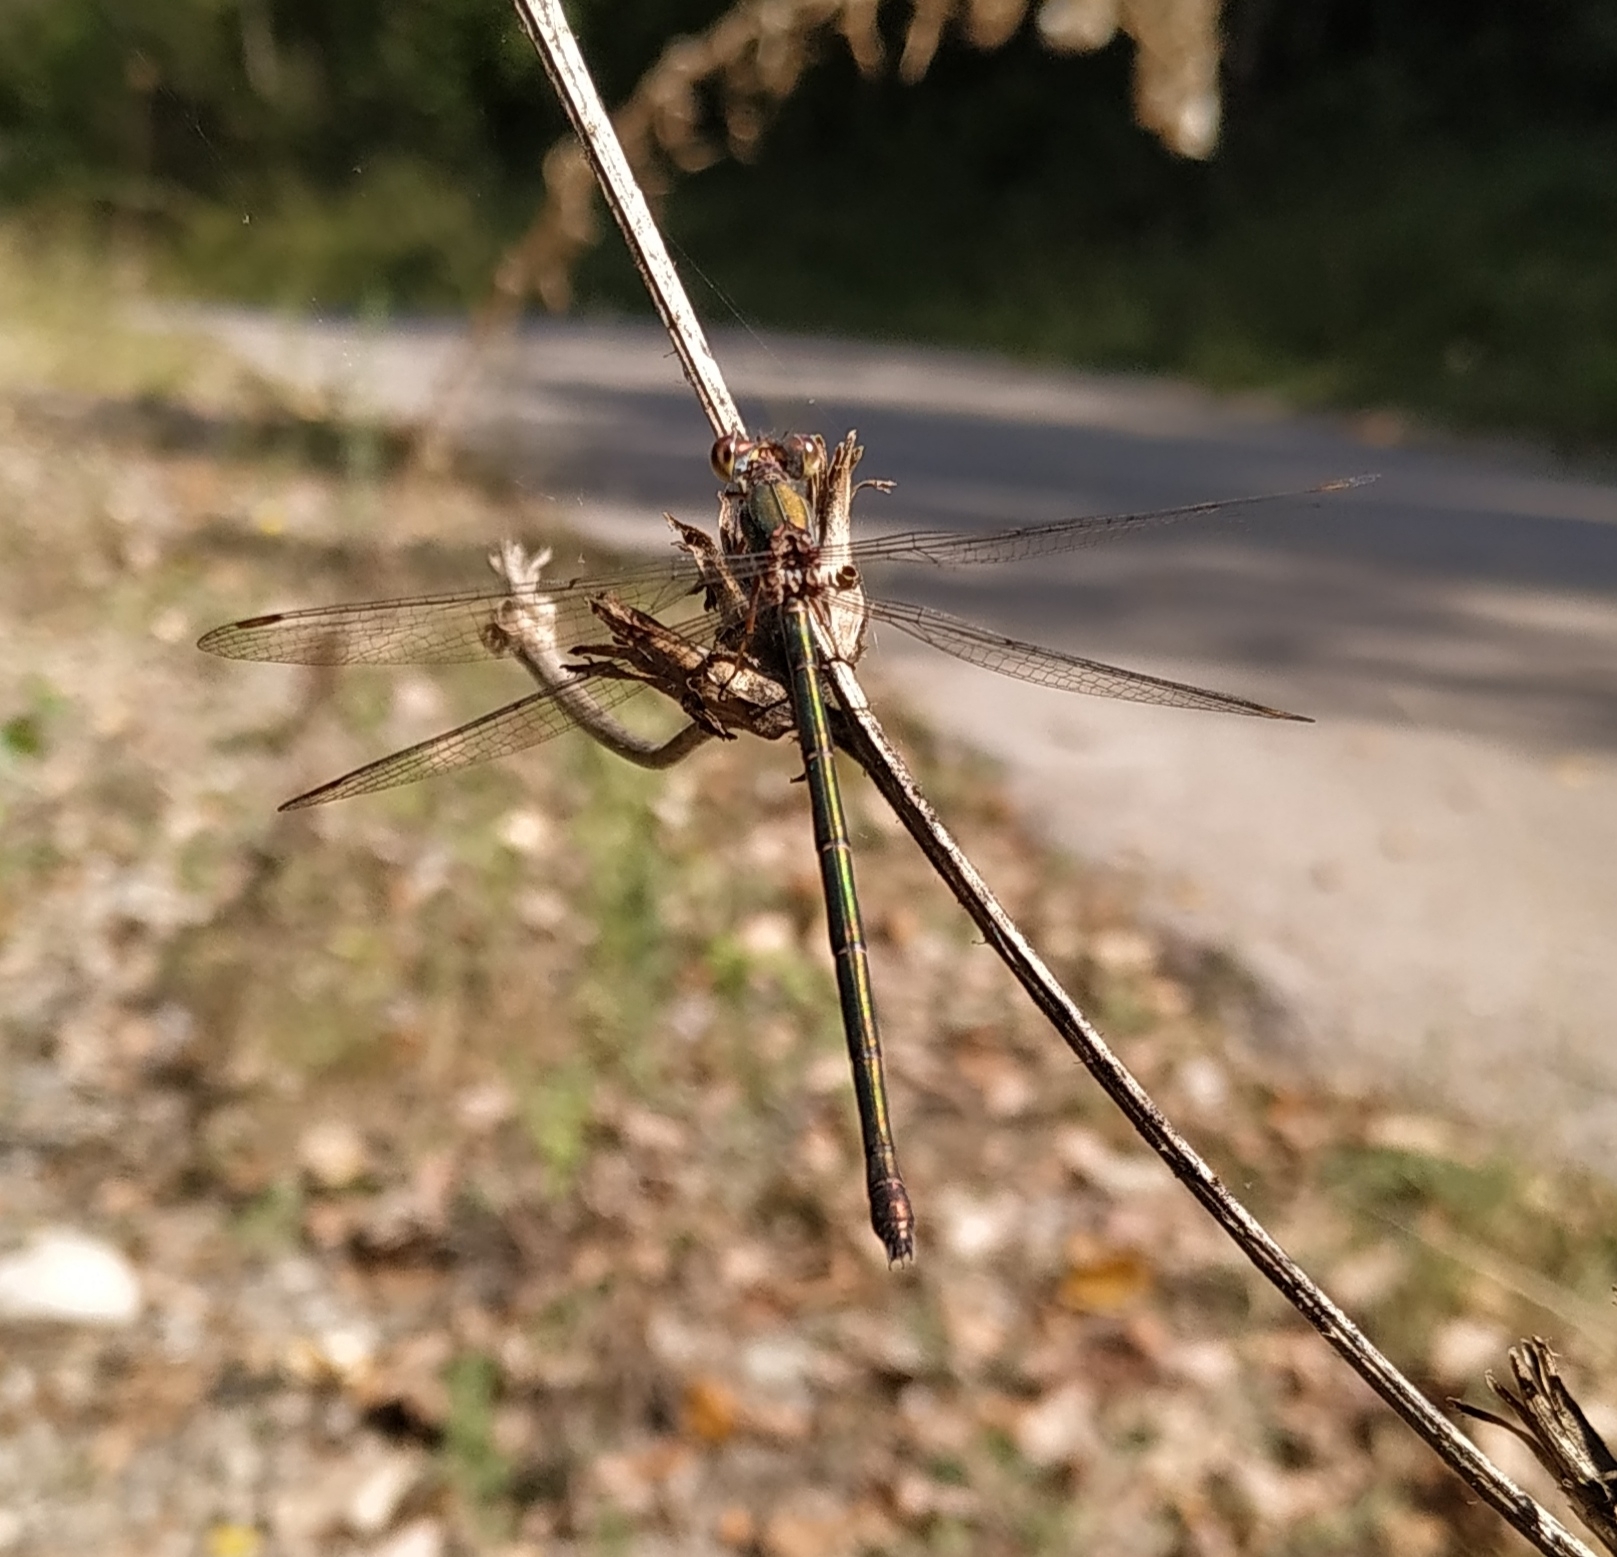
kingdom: Animalia
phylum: Arthropoda
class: Insecta
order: Odonata
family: Lestidae
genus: Chalcolestes
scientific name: Chalcolestes viridis
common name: Green emerald damselfly
